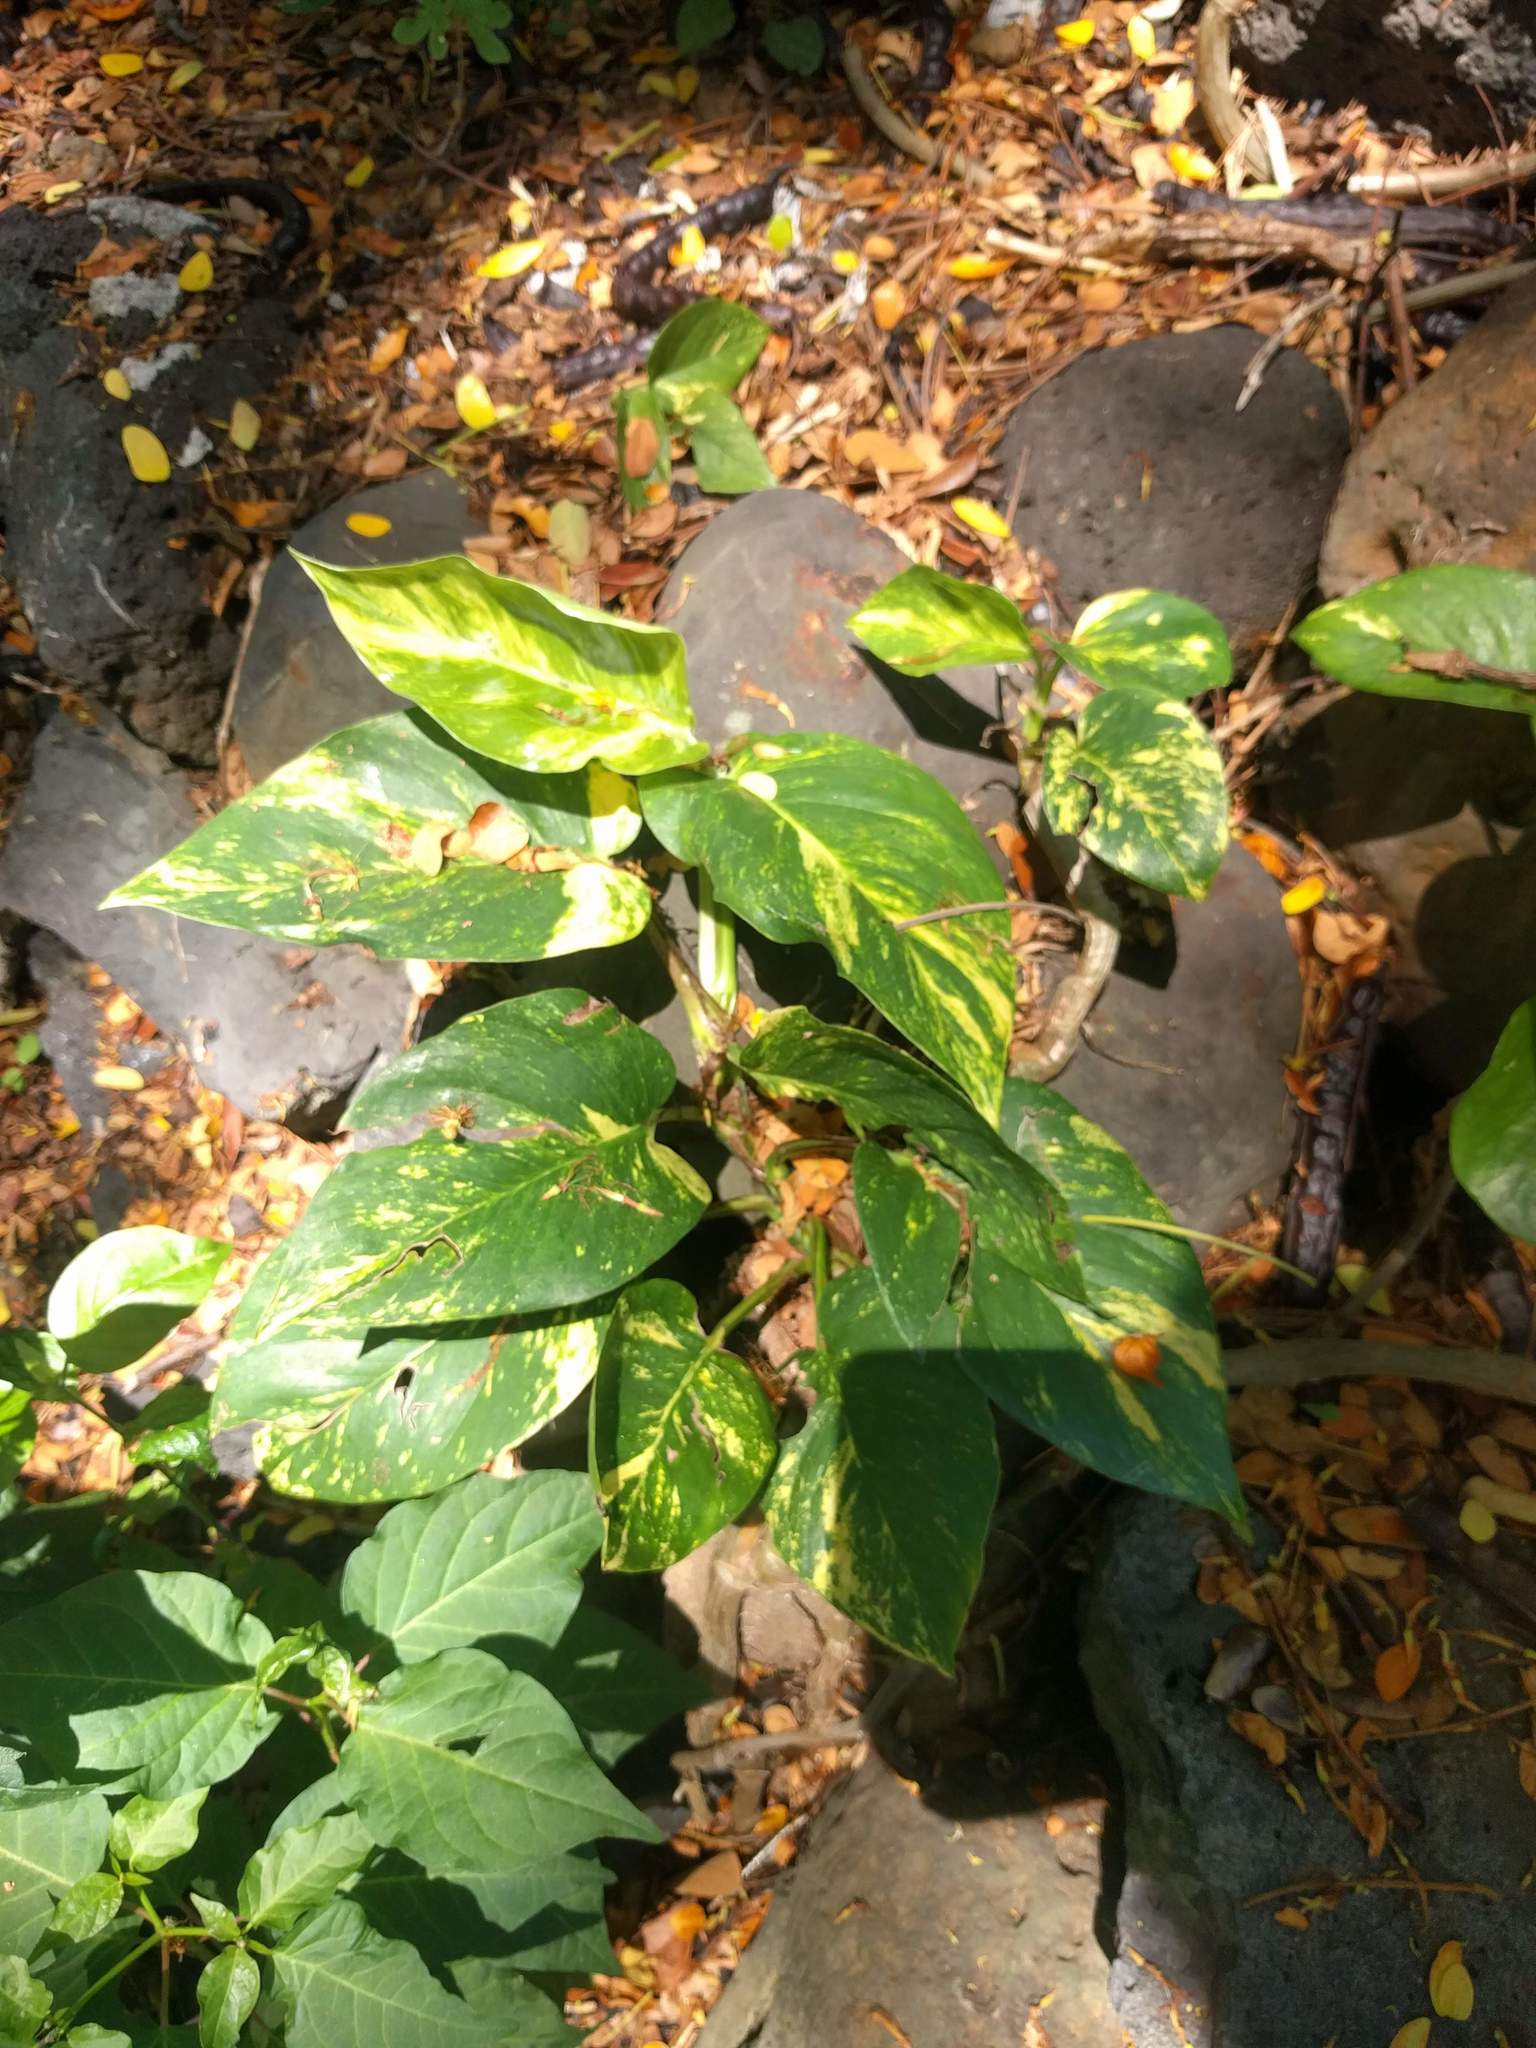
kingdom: Plantae
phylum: Tracheophyta
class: Liliopsida
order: Alismatales
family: Araceae
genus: Epipremnum
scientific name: Epipremnum aureum
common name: Golden hunter's-robe
